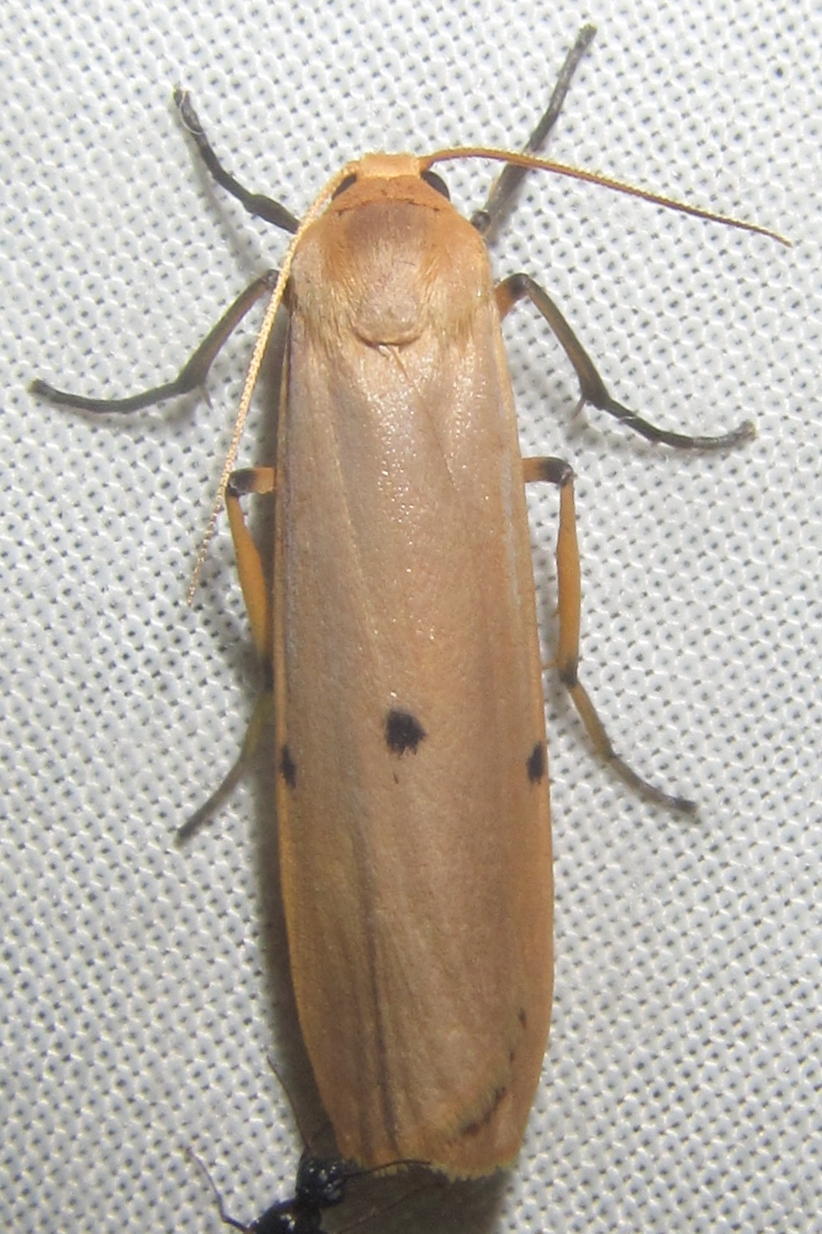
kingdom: Animalia
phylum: Arthropoda
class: Insecta
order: Lepidoptera
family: Erebidae
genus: Zobida
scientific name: Zobida similipuncta
